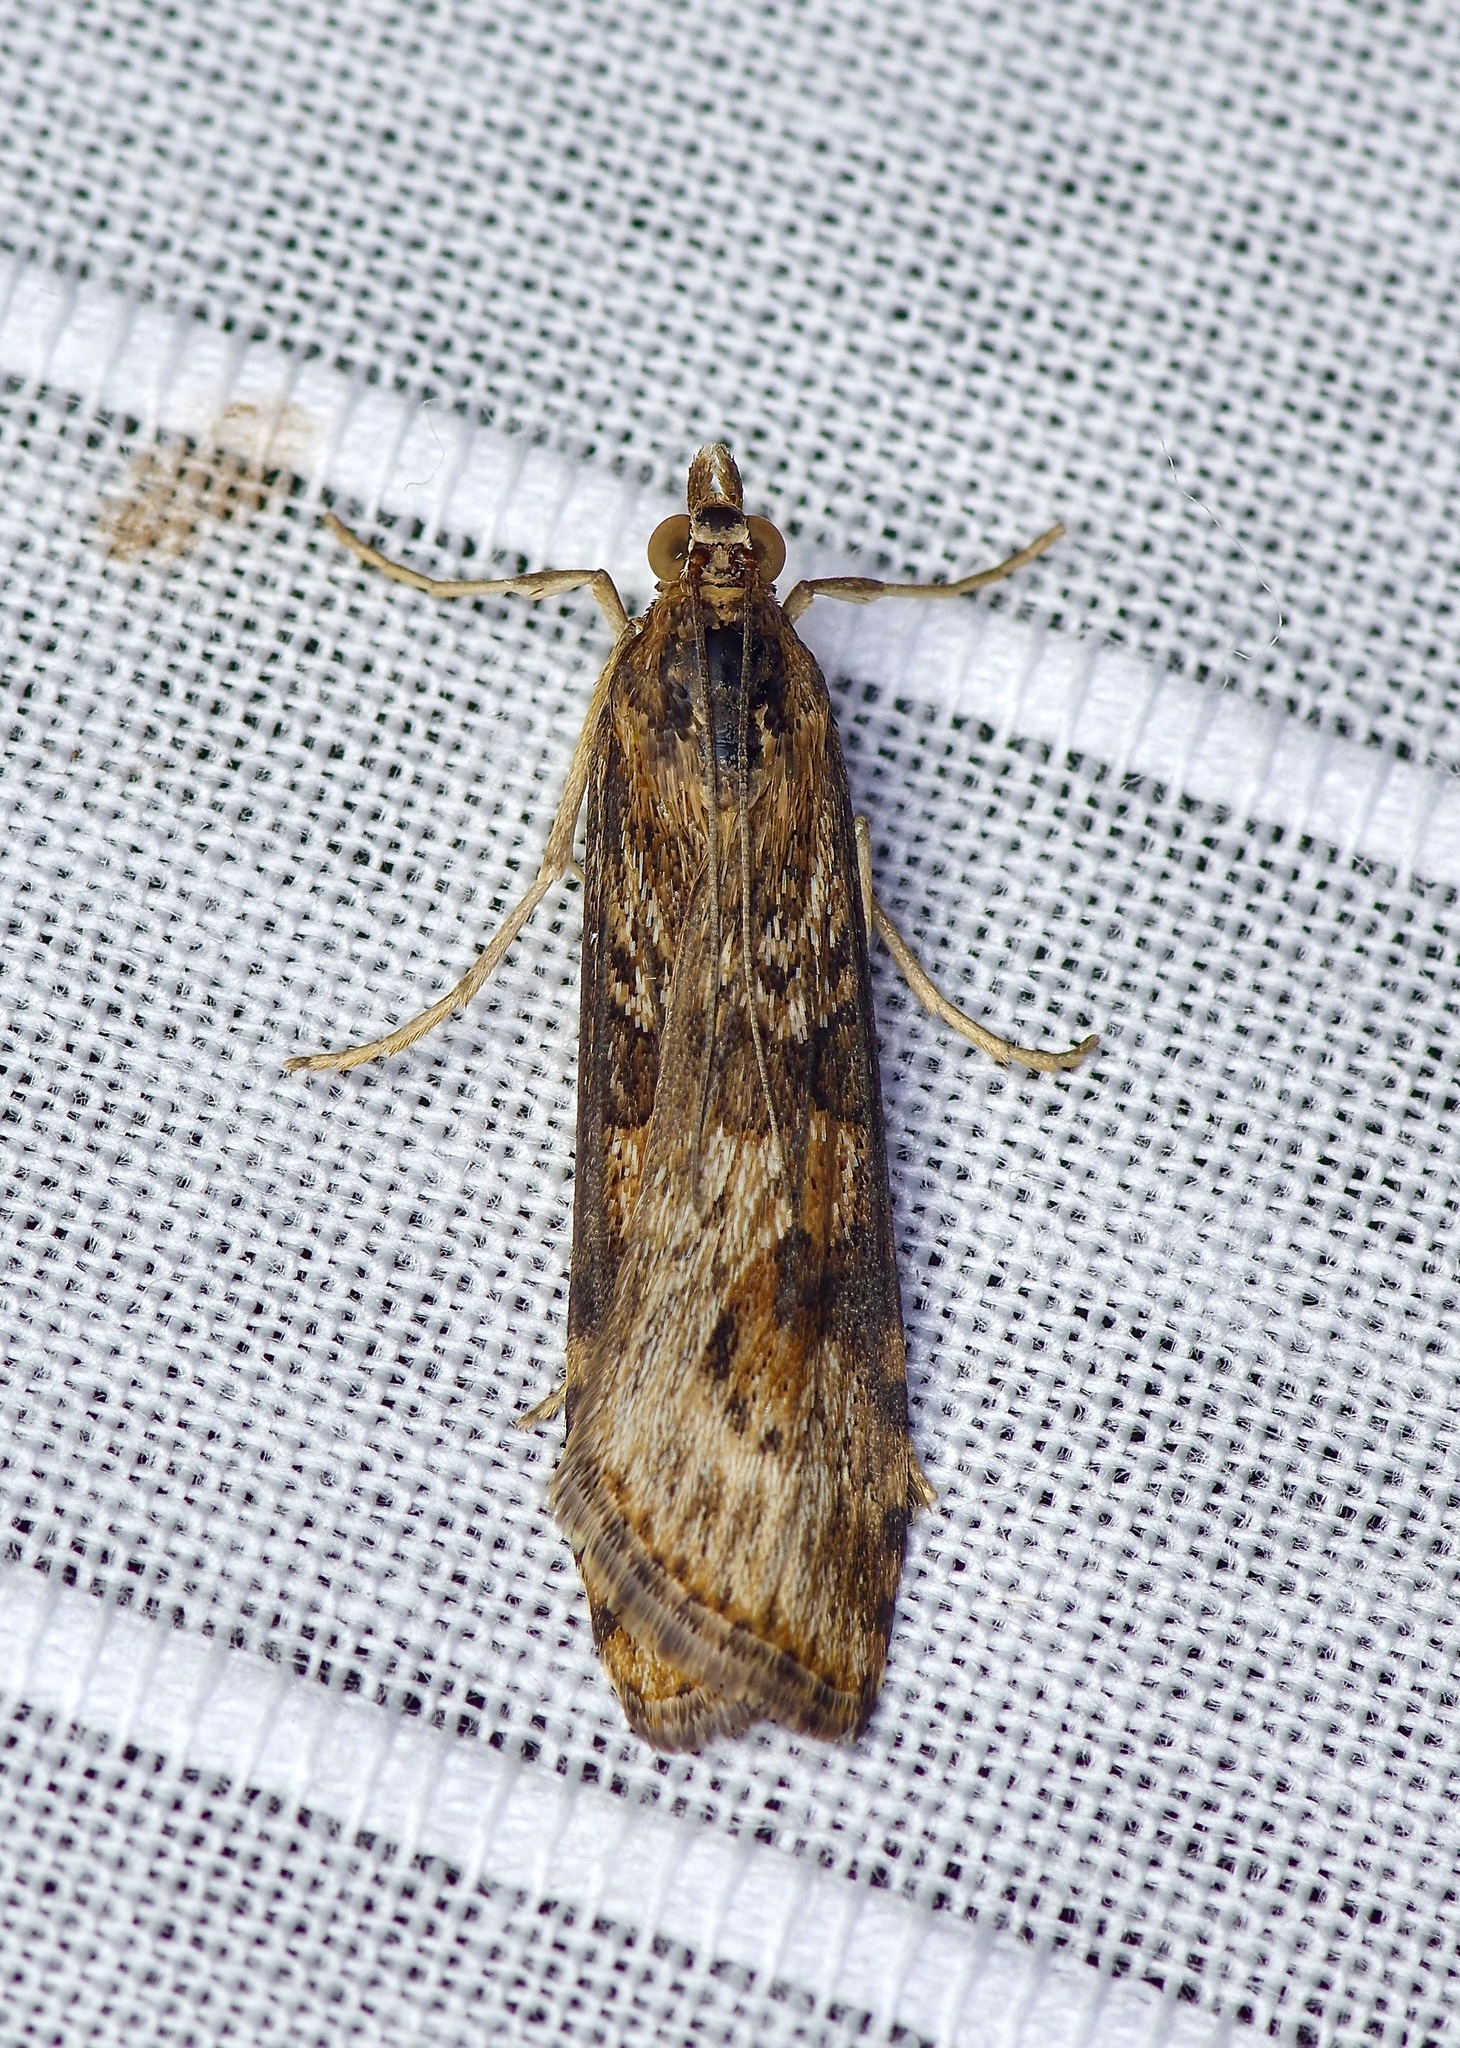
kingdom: Animalia
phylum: Arthropoda
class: Insecta
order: Lepidoptera
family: Crambidae
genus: Nomophila
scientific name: Nomophila nearctica
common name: American rush veneer
